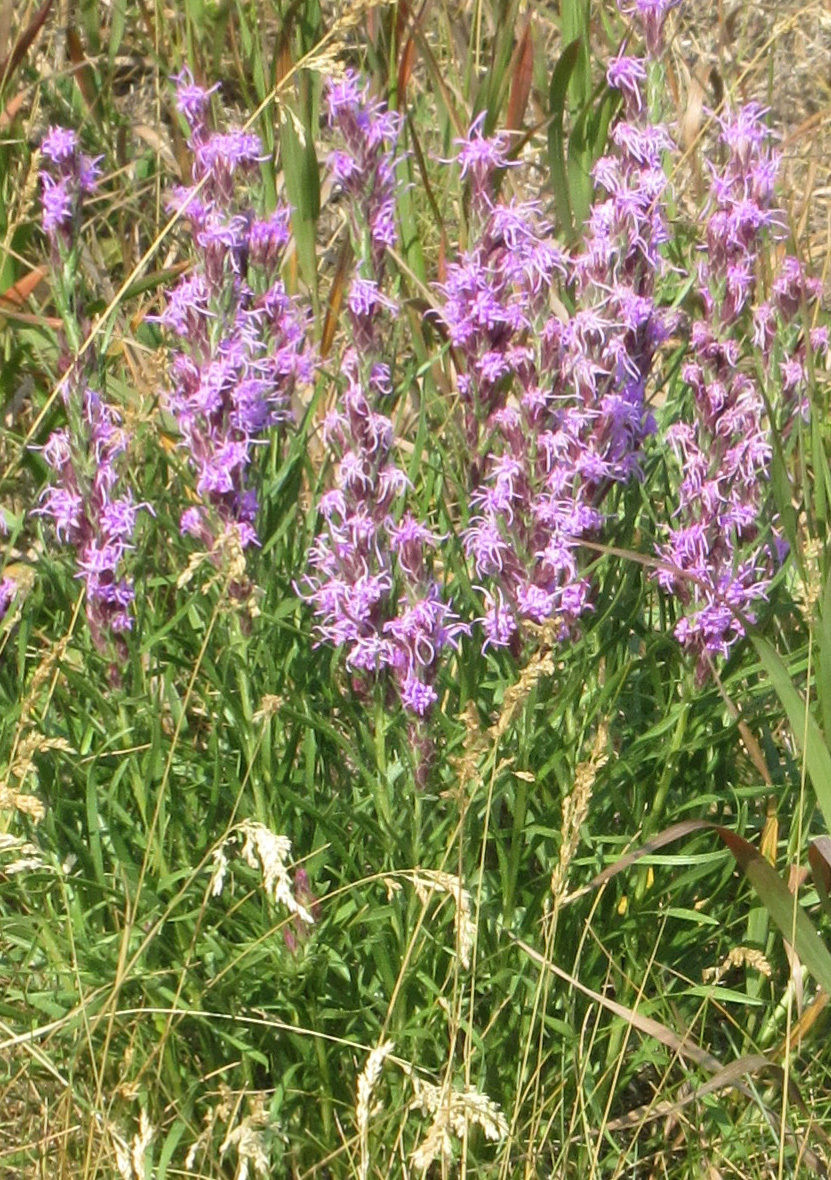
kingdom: Plantae
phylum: Tracheophyta
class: Magnoliopsida
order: Asterales
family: Asteraceae
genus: Liatris
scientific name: Liatris punctata
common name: Dotted gayfeather
